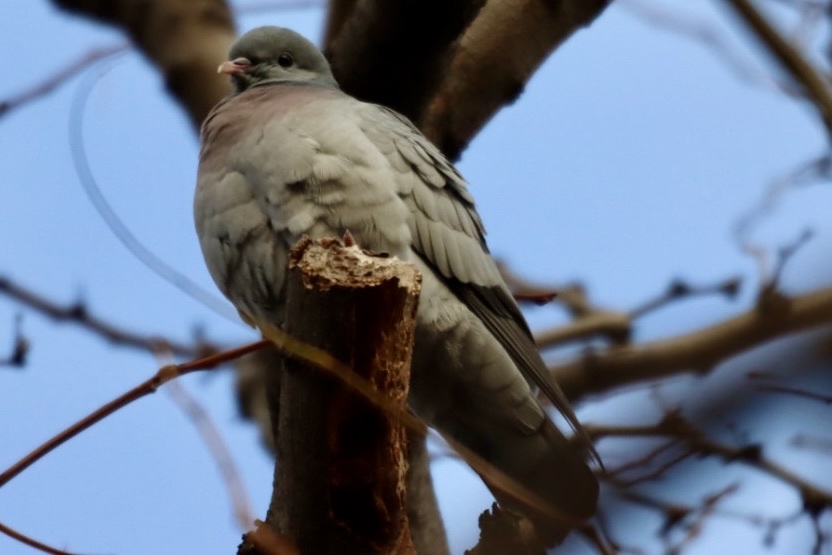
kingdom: Animalia
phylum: Chordata
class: Aves
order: Columbiformes
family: Columbidae
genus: Columba
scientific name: Columba oenas
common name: Stock dove
